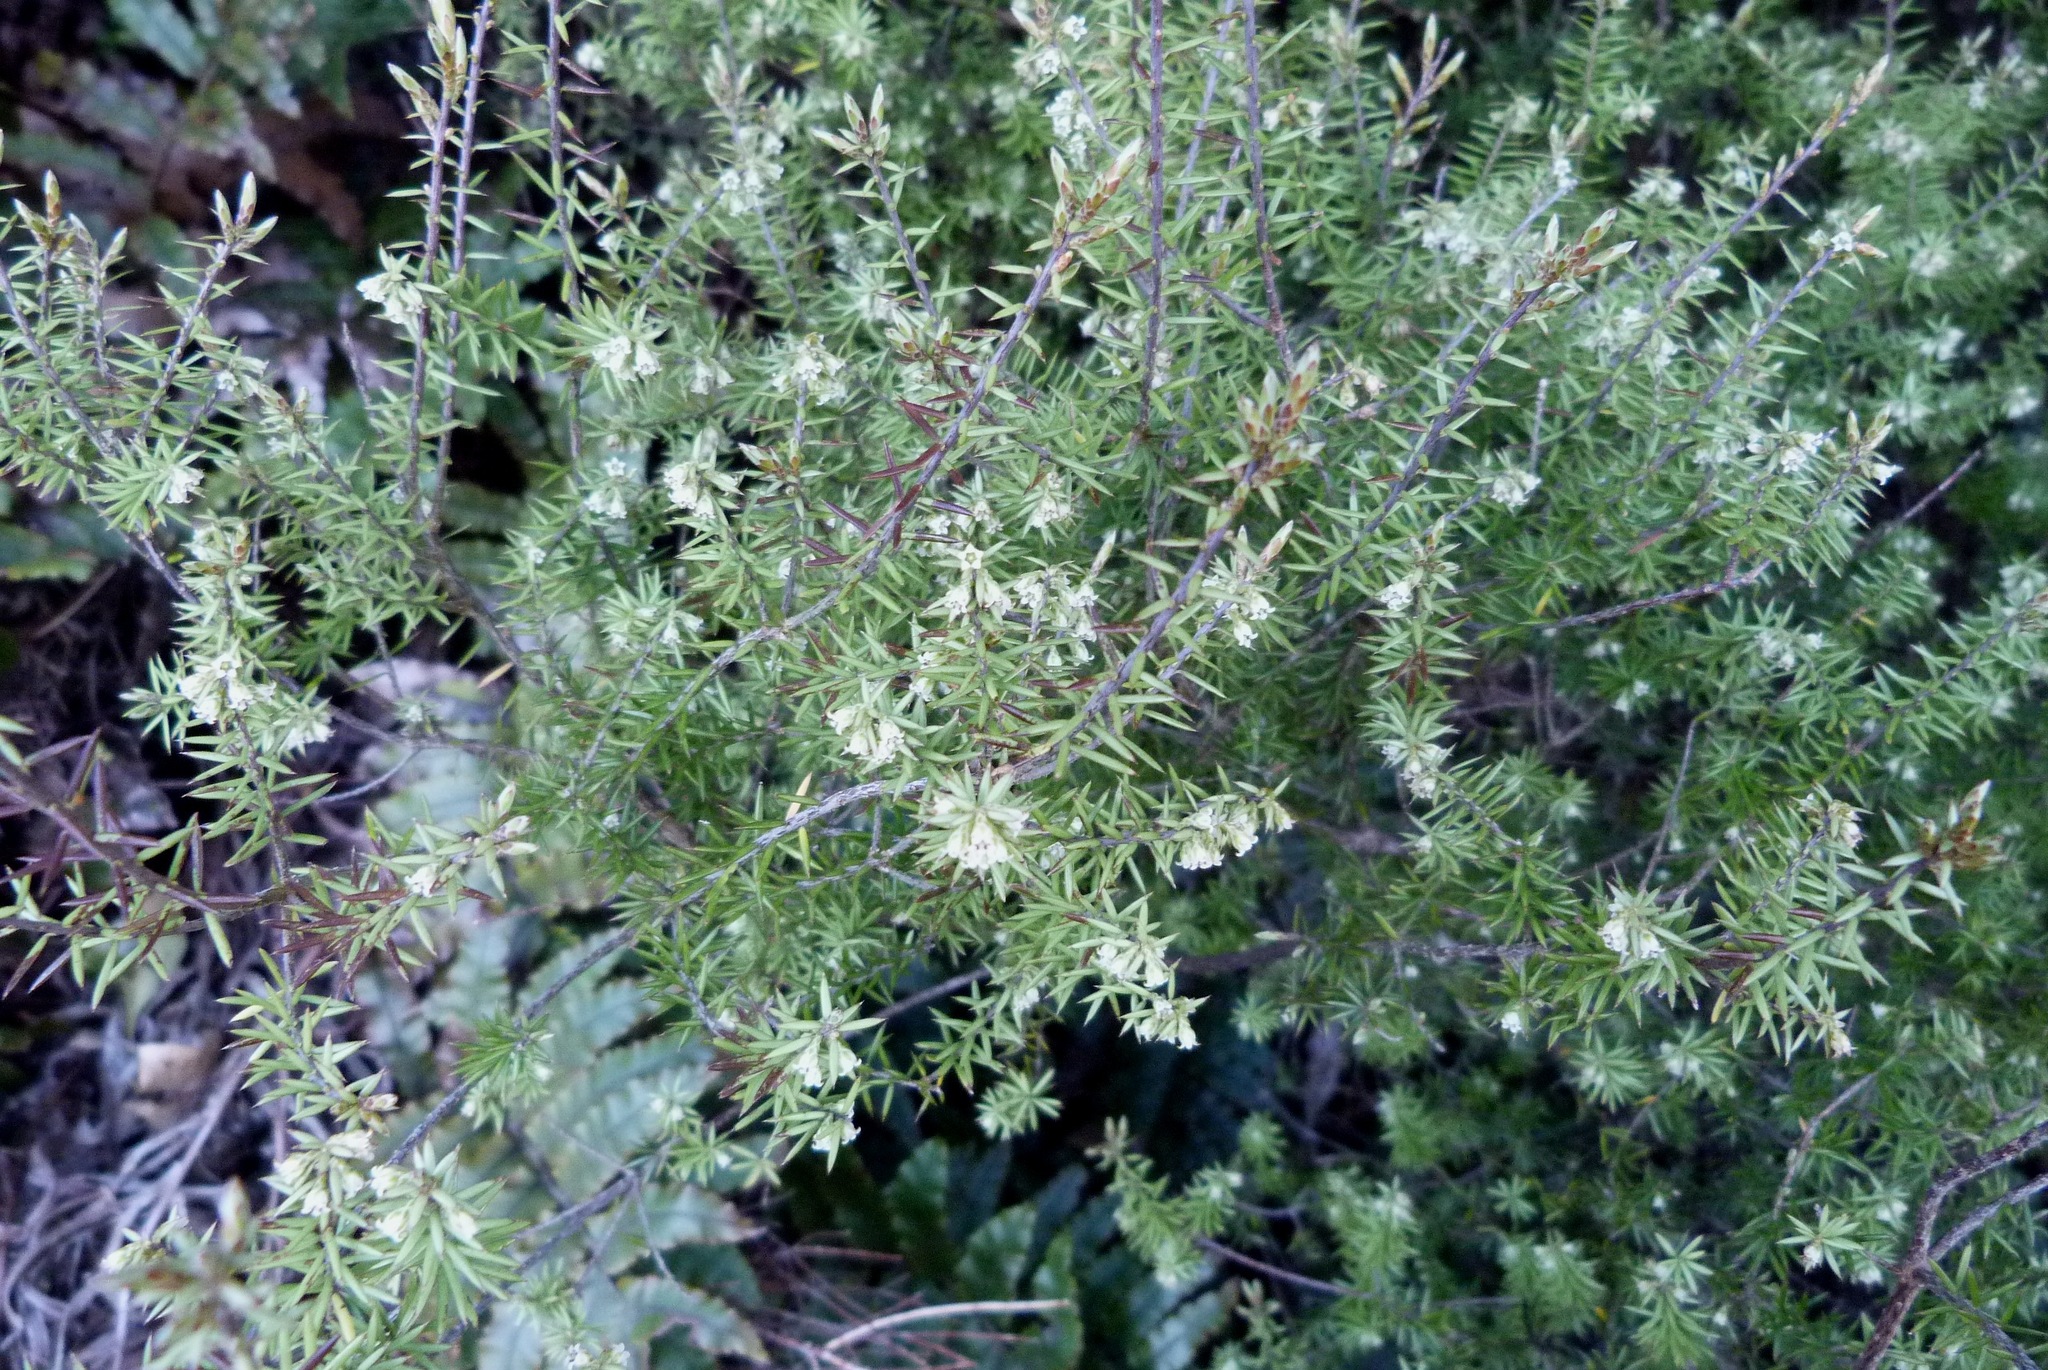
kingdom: Plantae
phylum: Tracheophyta
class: Magnoliopsida
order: Ericales
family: Ericaceae
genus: Leptecophylla
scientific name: Leptecophylla juniperina
